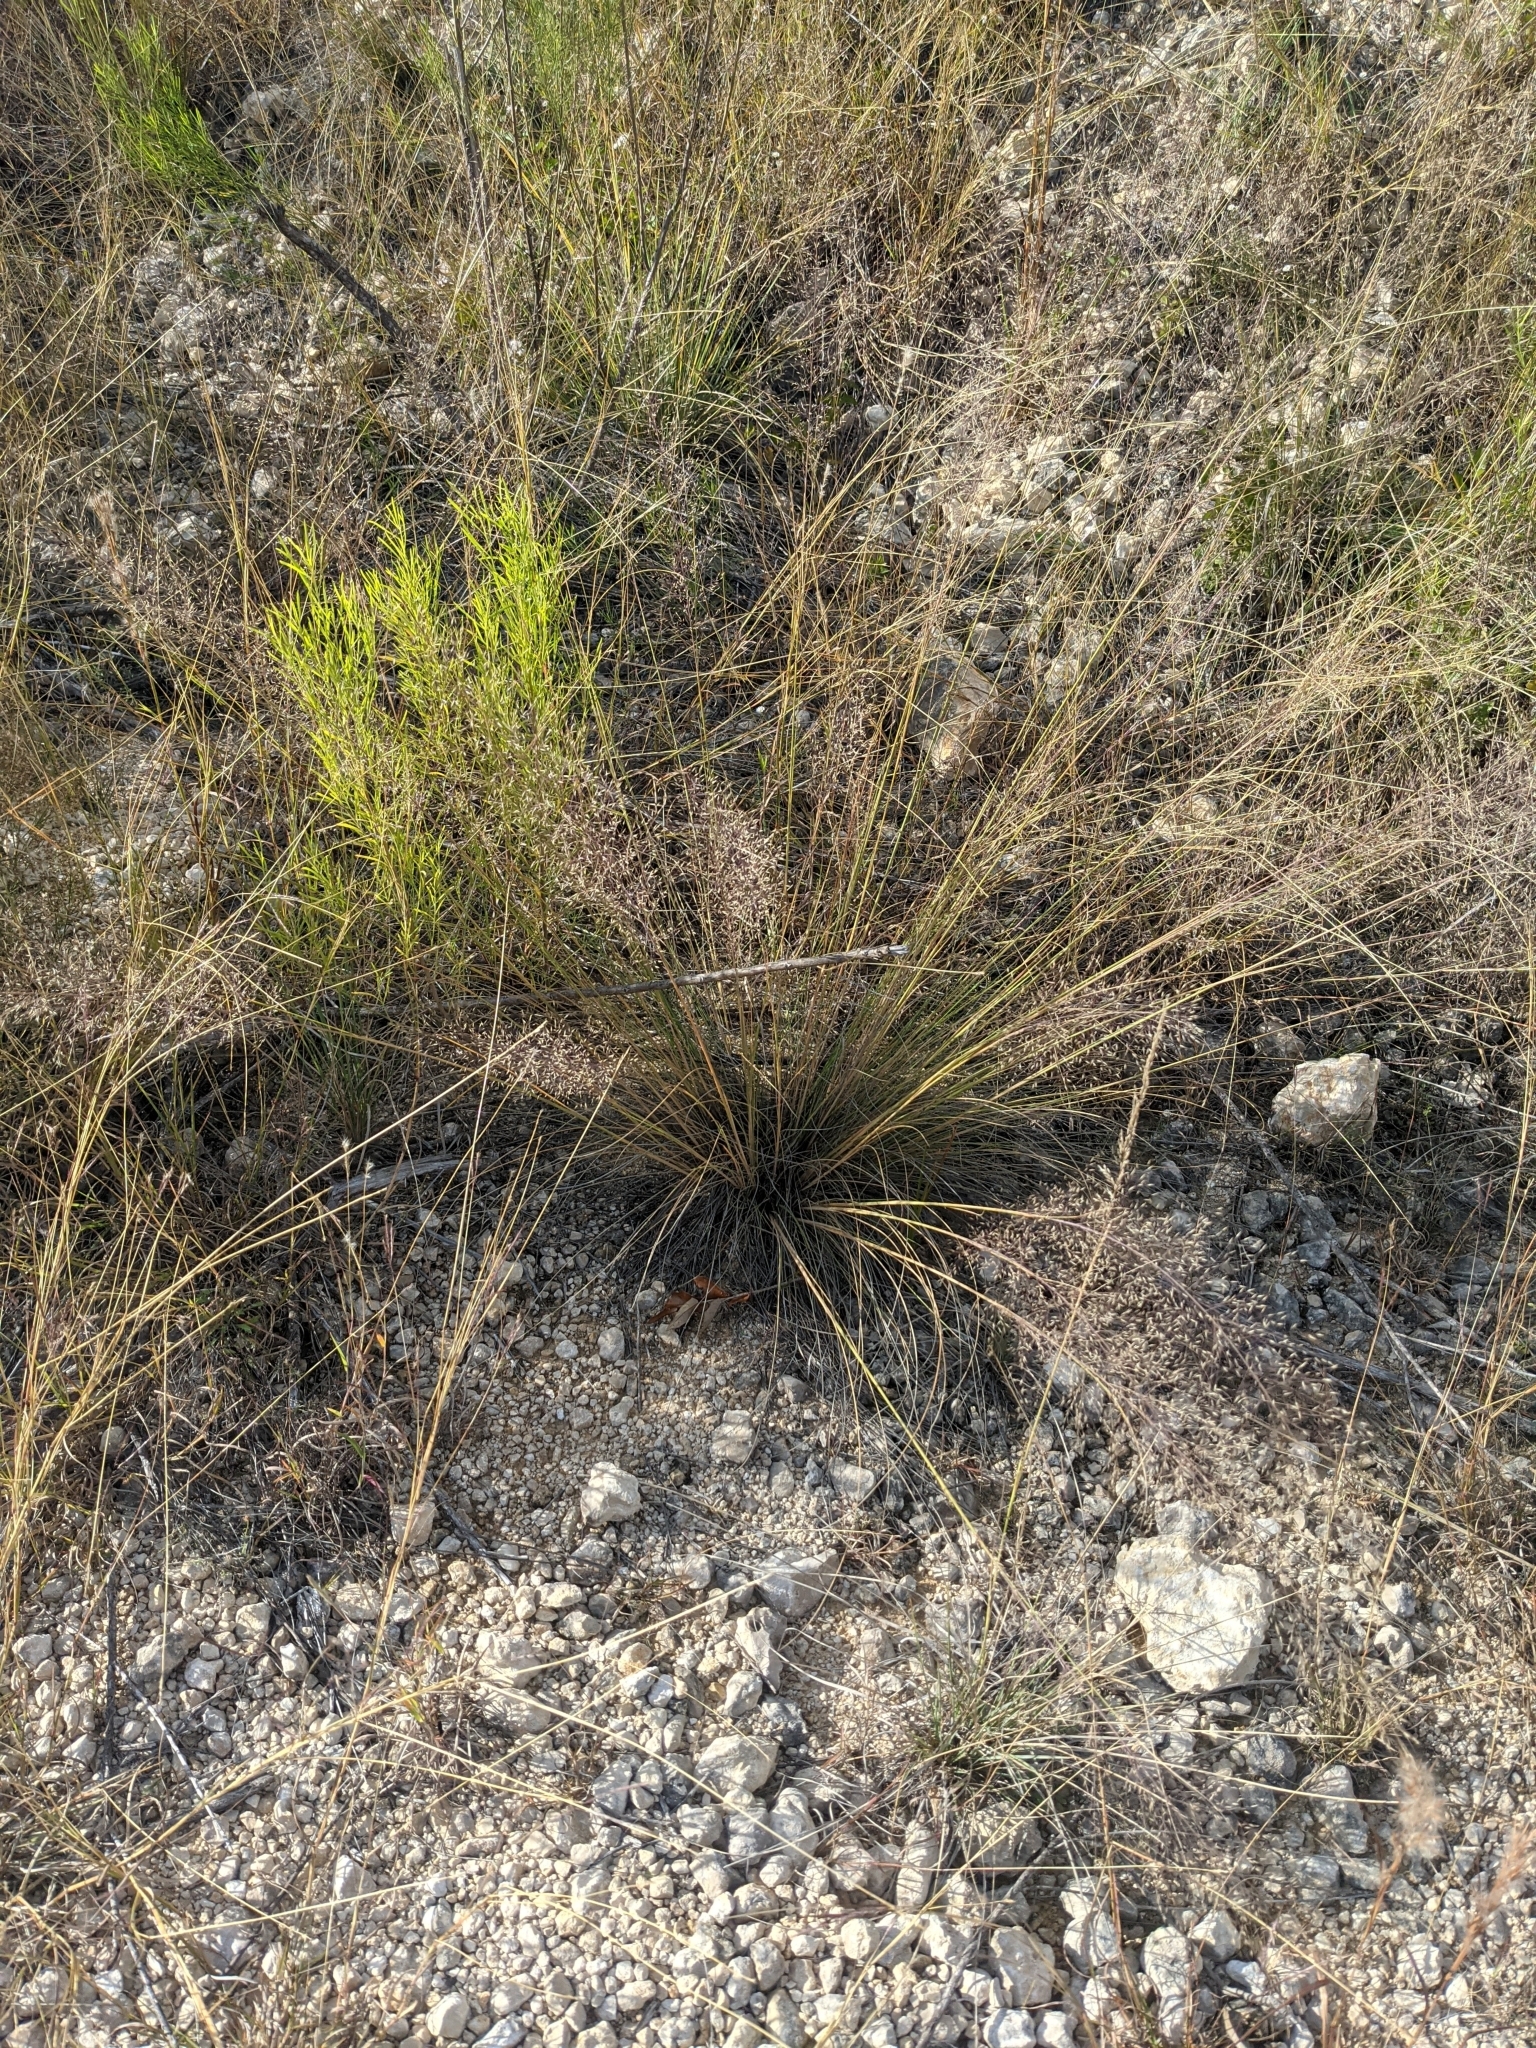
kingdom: Plantae
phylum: Tracheophyta
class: Liliopsida
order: Poales
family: Poaceae
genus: Muhlenbergia
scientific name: Muhlenbergia involuta
